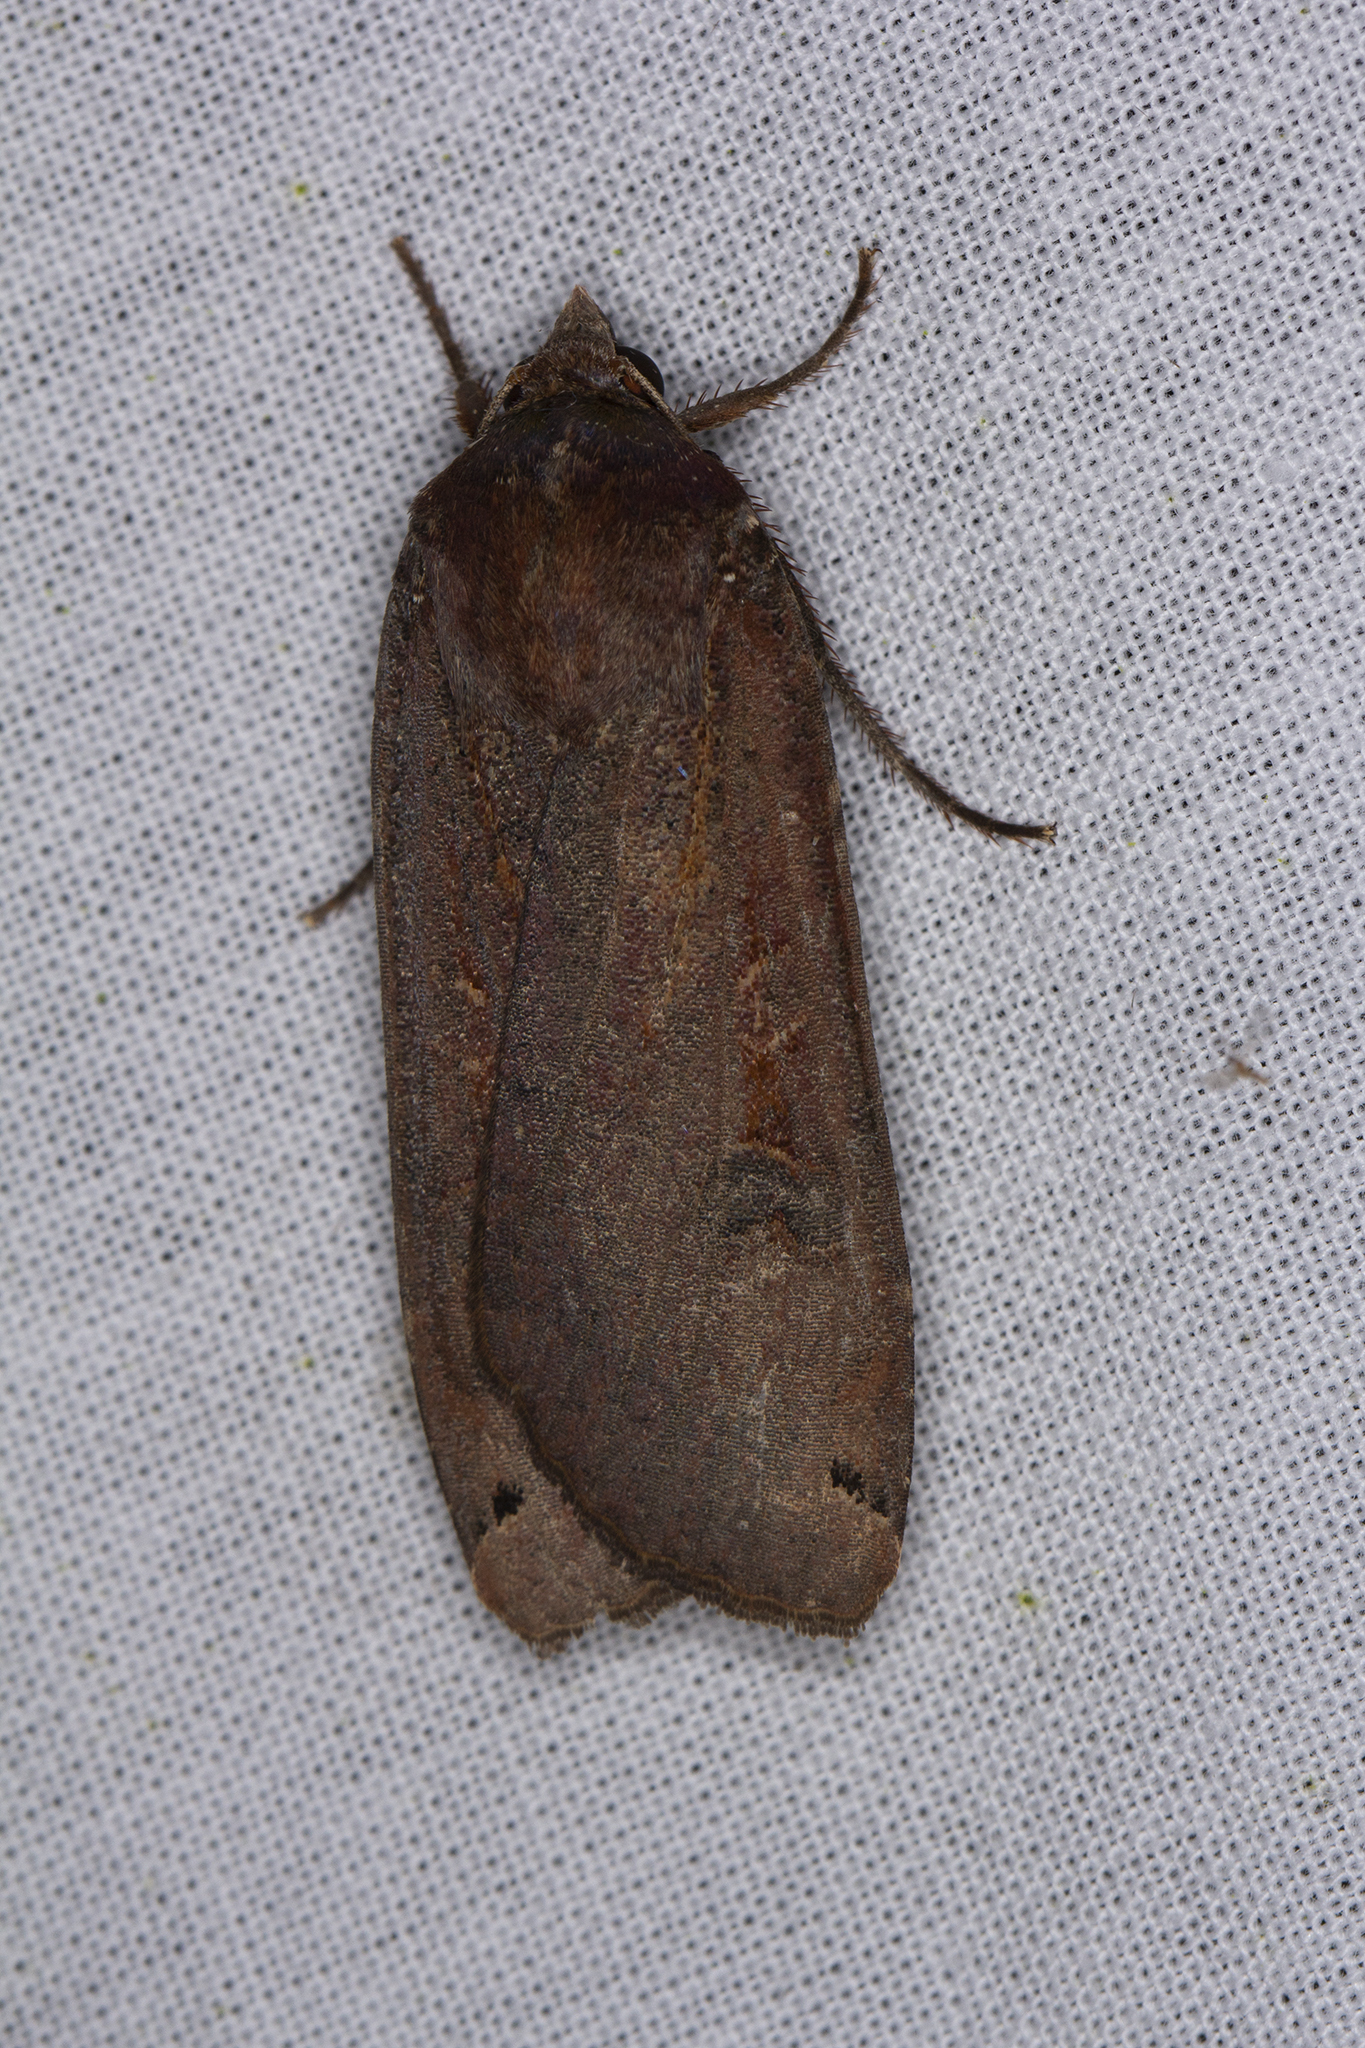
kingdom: Animalia
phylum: Arthropoda
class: Insecta
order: Lepidoptera
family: Noctuidae
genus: Noctua
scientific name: Noctua pronuba
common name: Large yellow underwing
